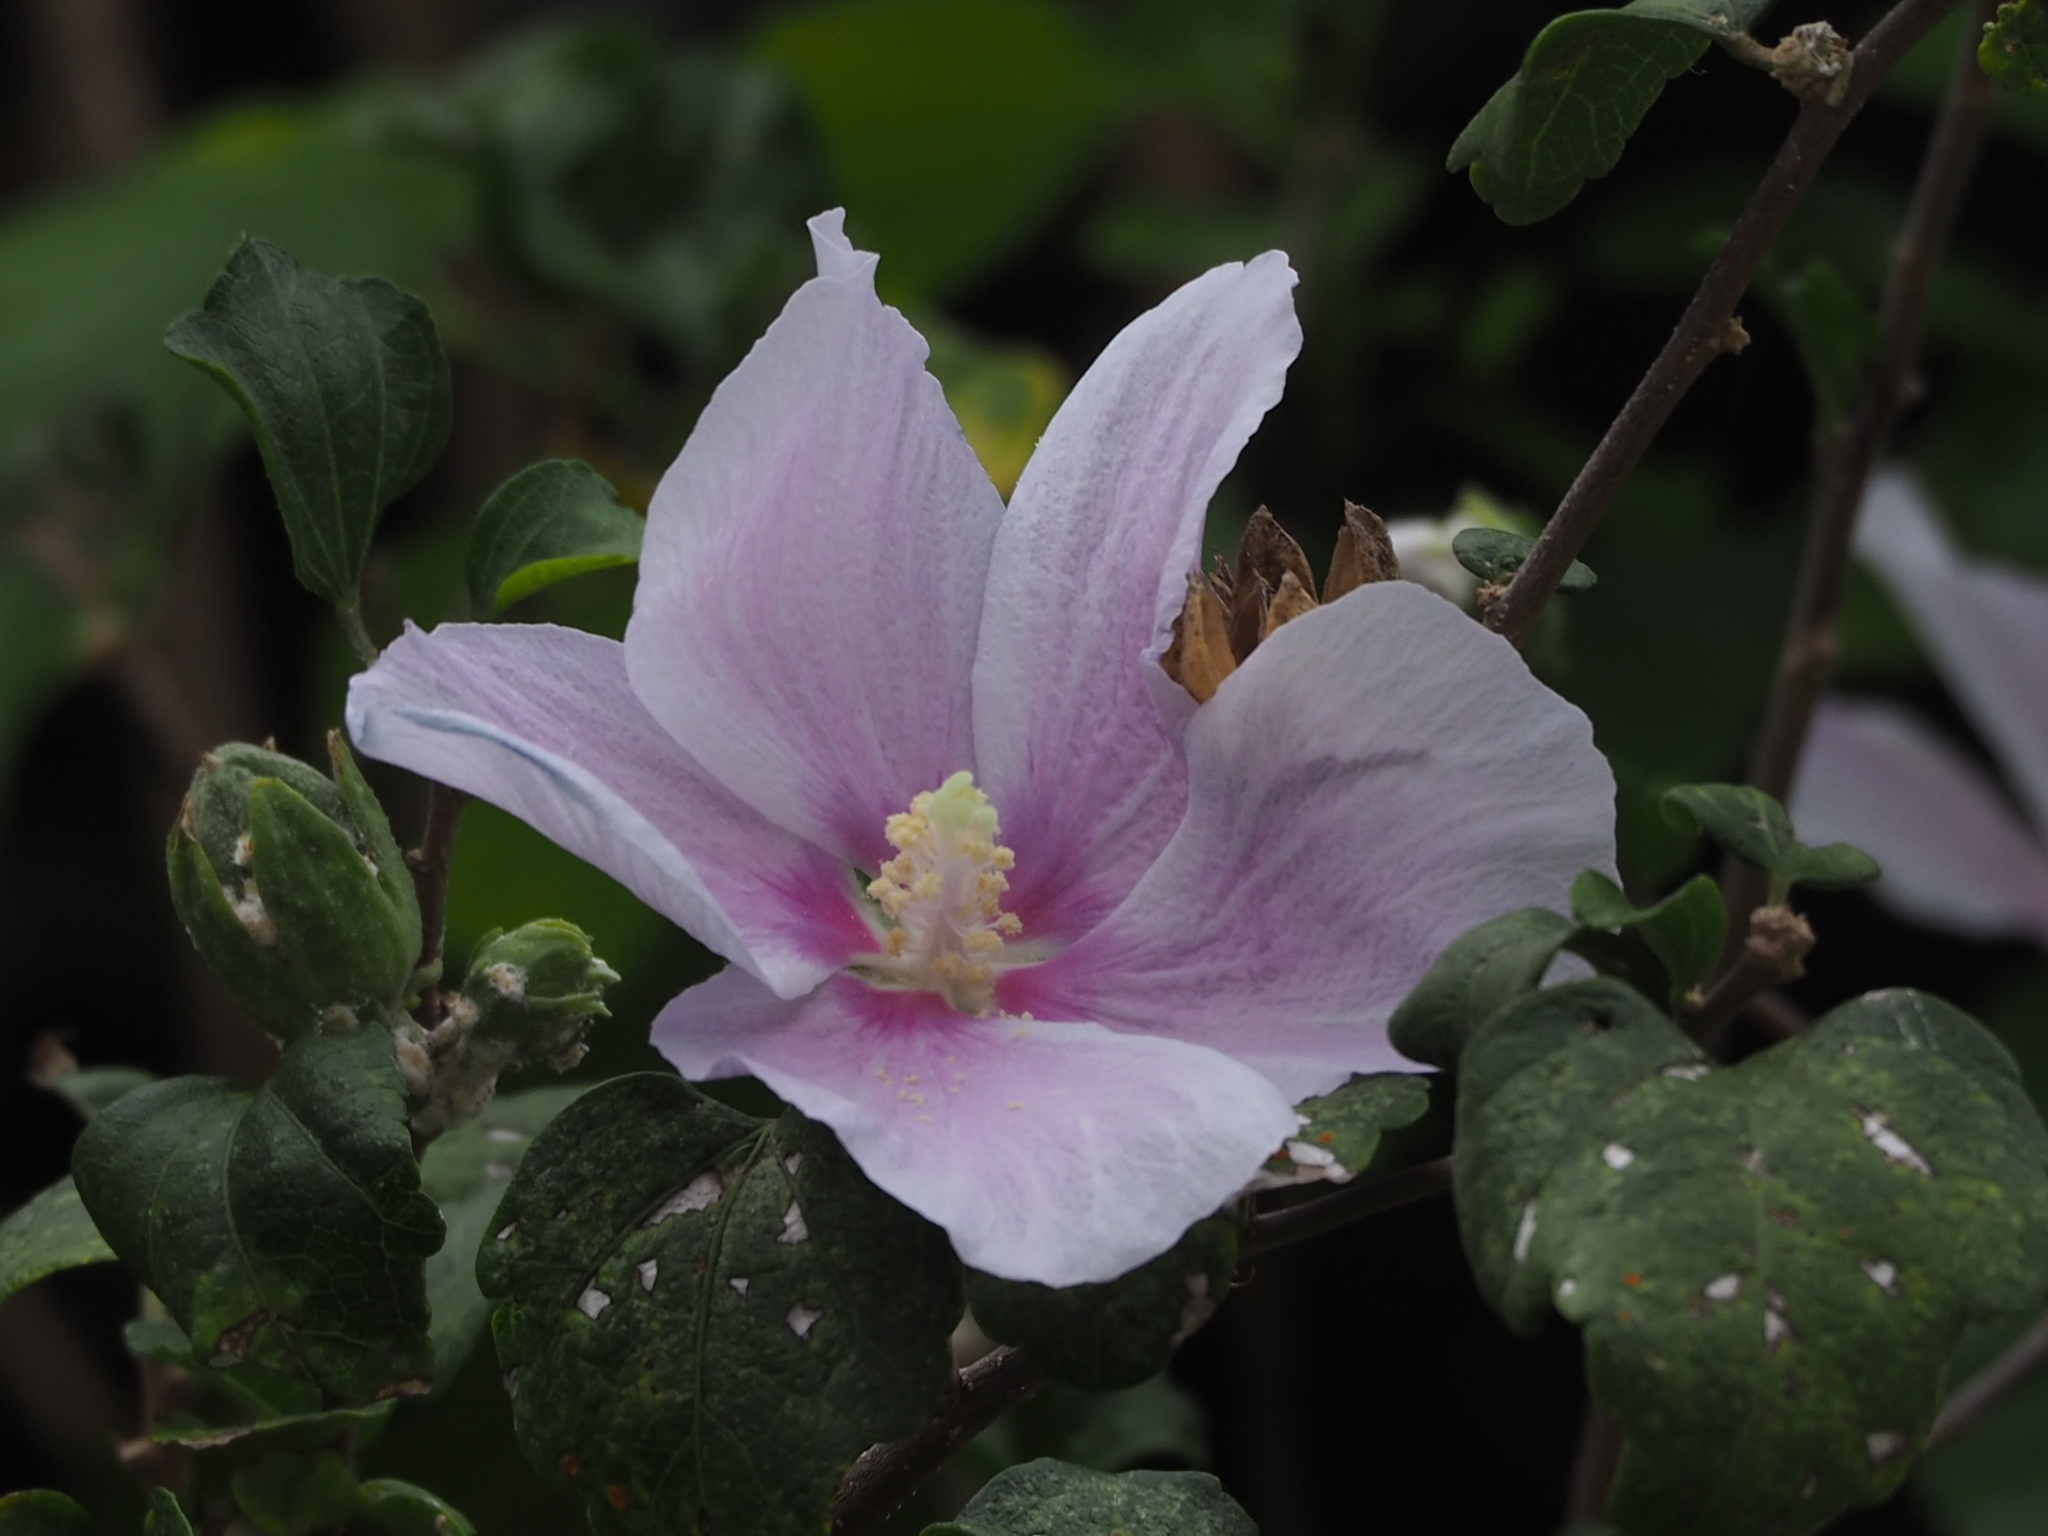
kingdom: Plantae
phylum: Tracheophyta
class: Magnoliopsida
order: Malvales
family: Malvaceae
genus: Hibiscus
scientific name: Hibiscus syriacus
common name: Syrian ketmia
